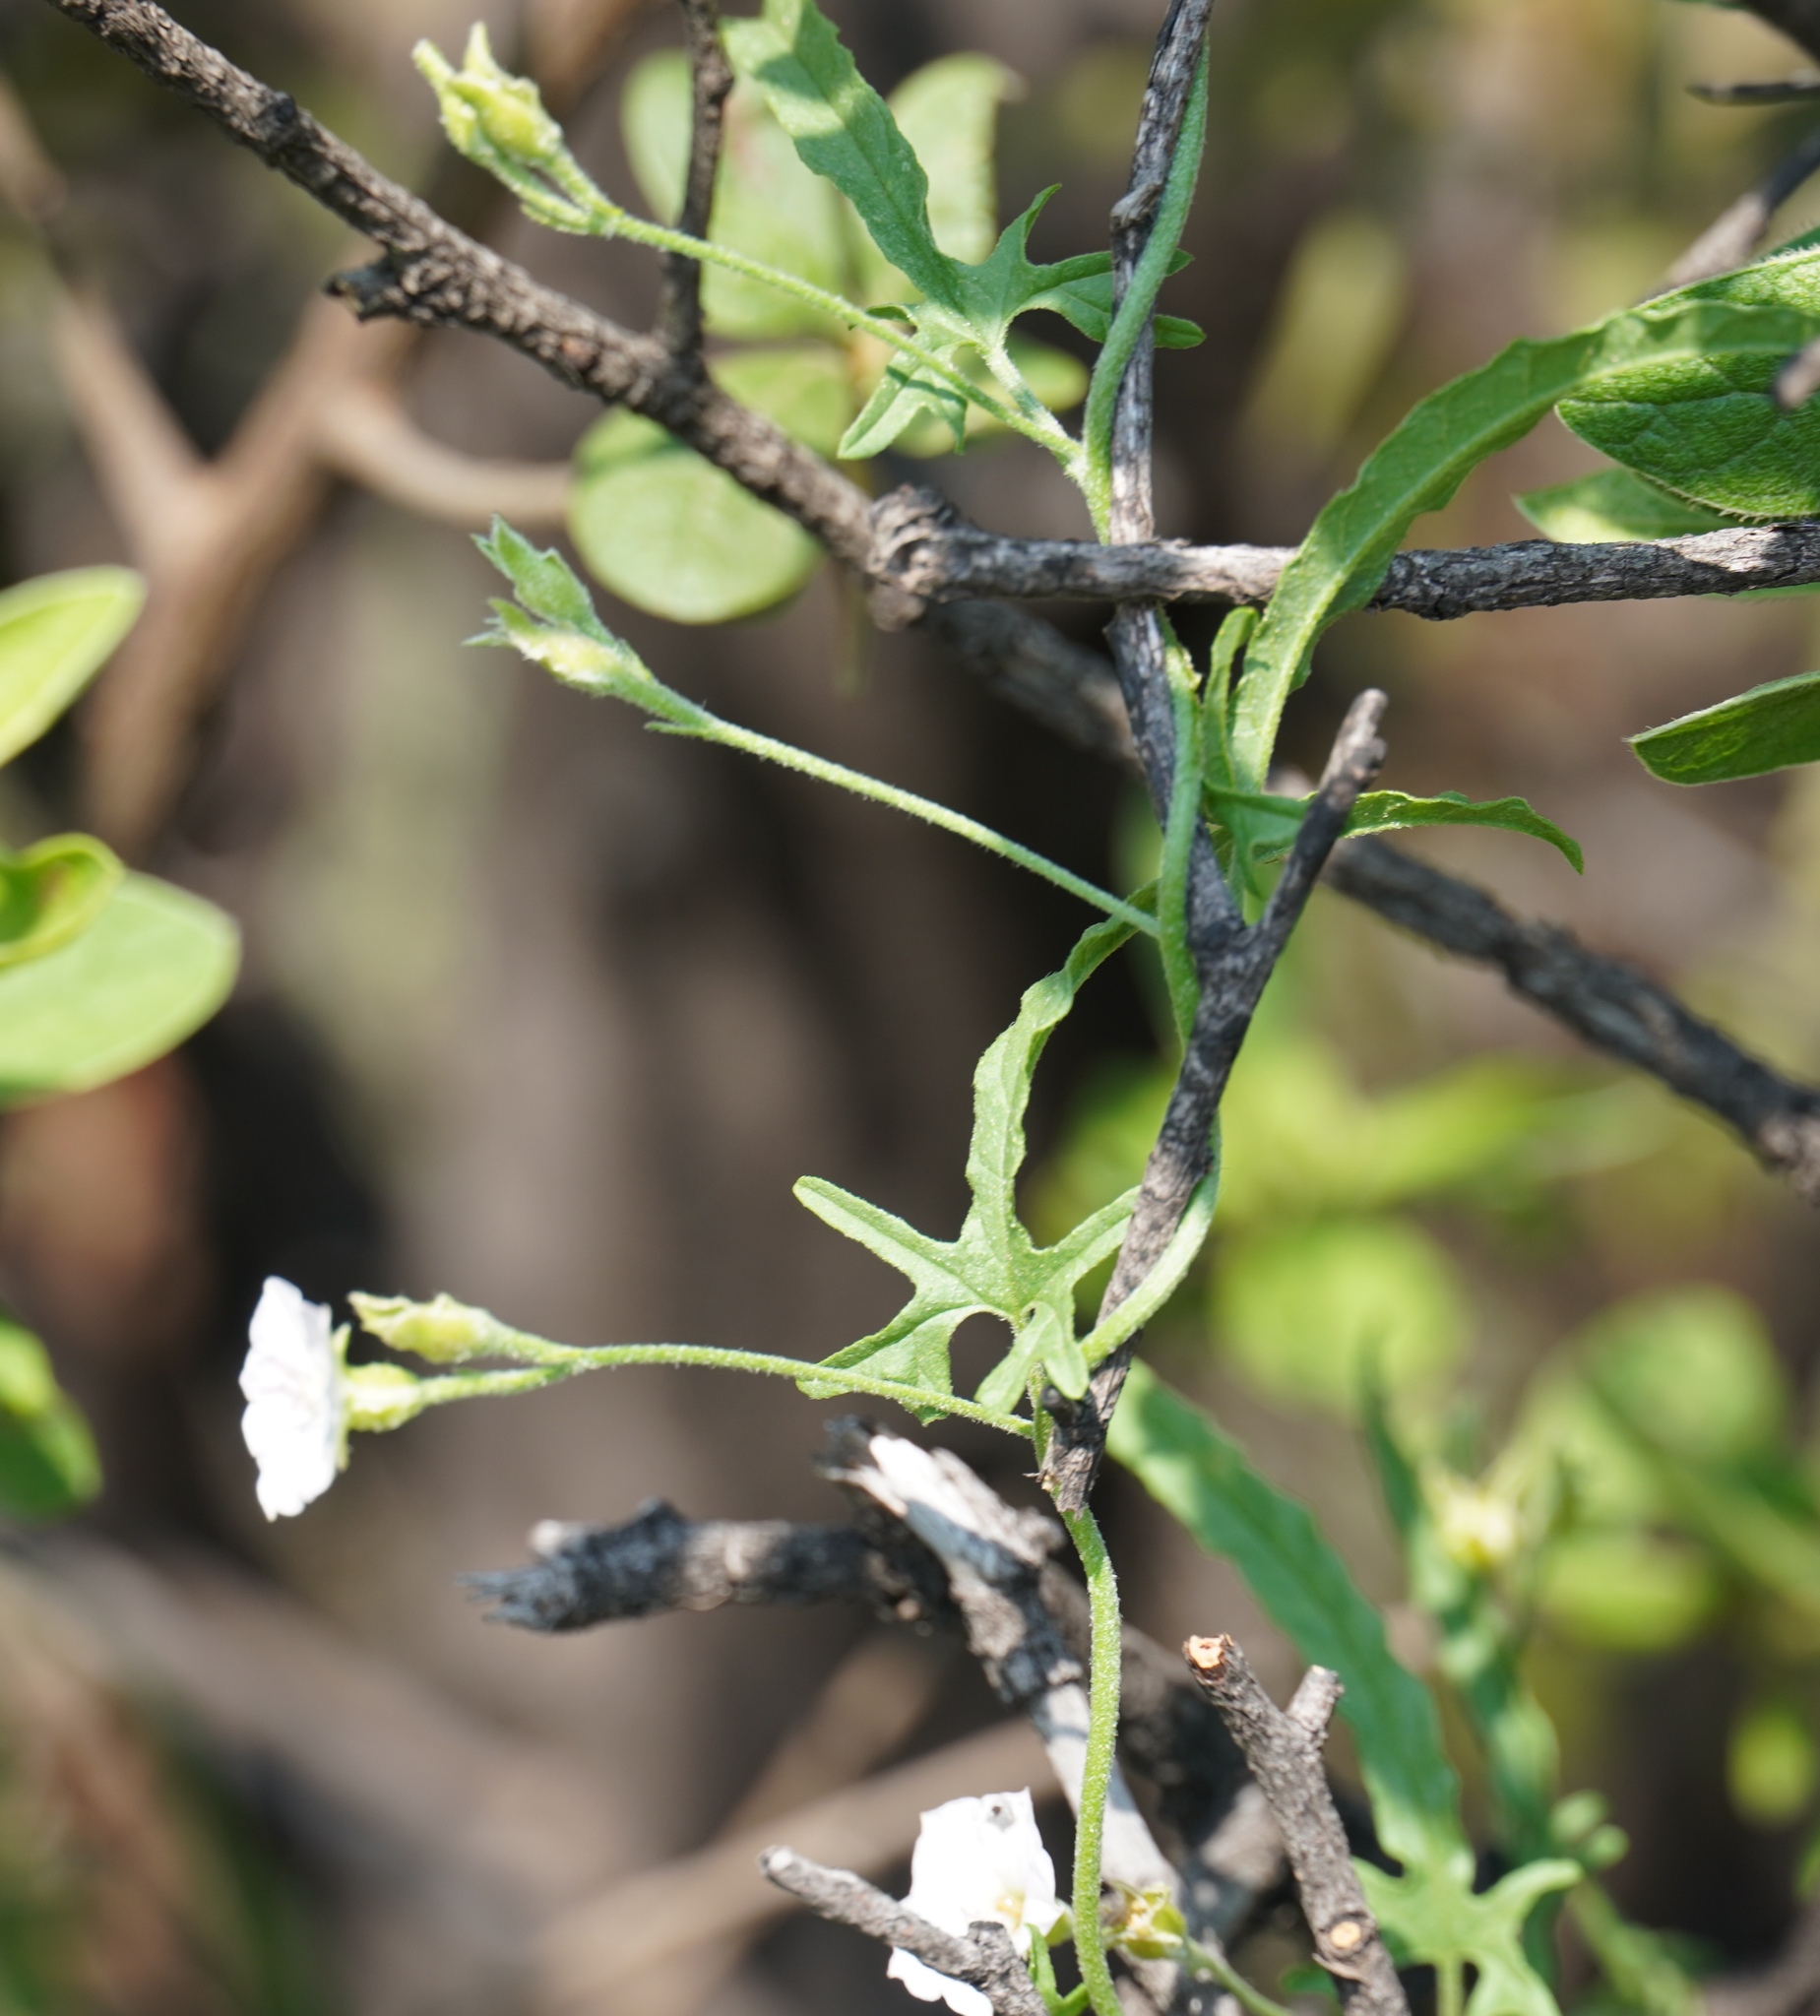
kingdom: Plantae
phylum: Tracheophyta
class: Magnoliopsida
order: Solanales
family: Convolvulaceae
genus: Convolvulus
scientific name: Convolvulus sagittatus
